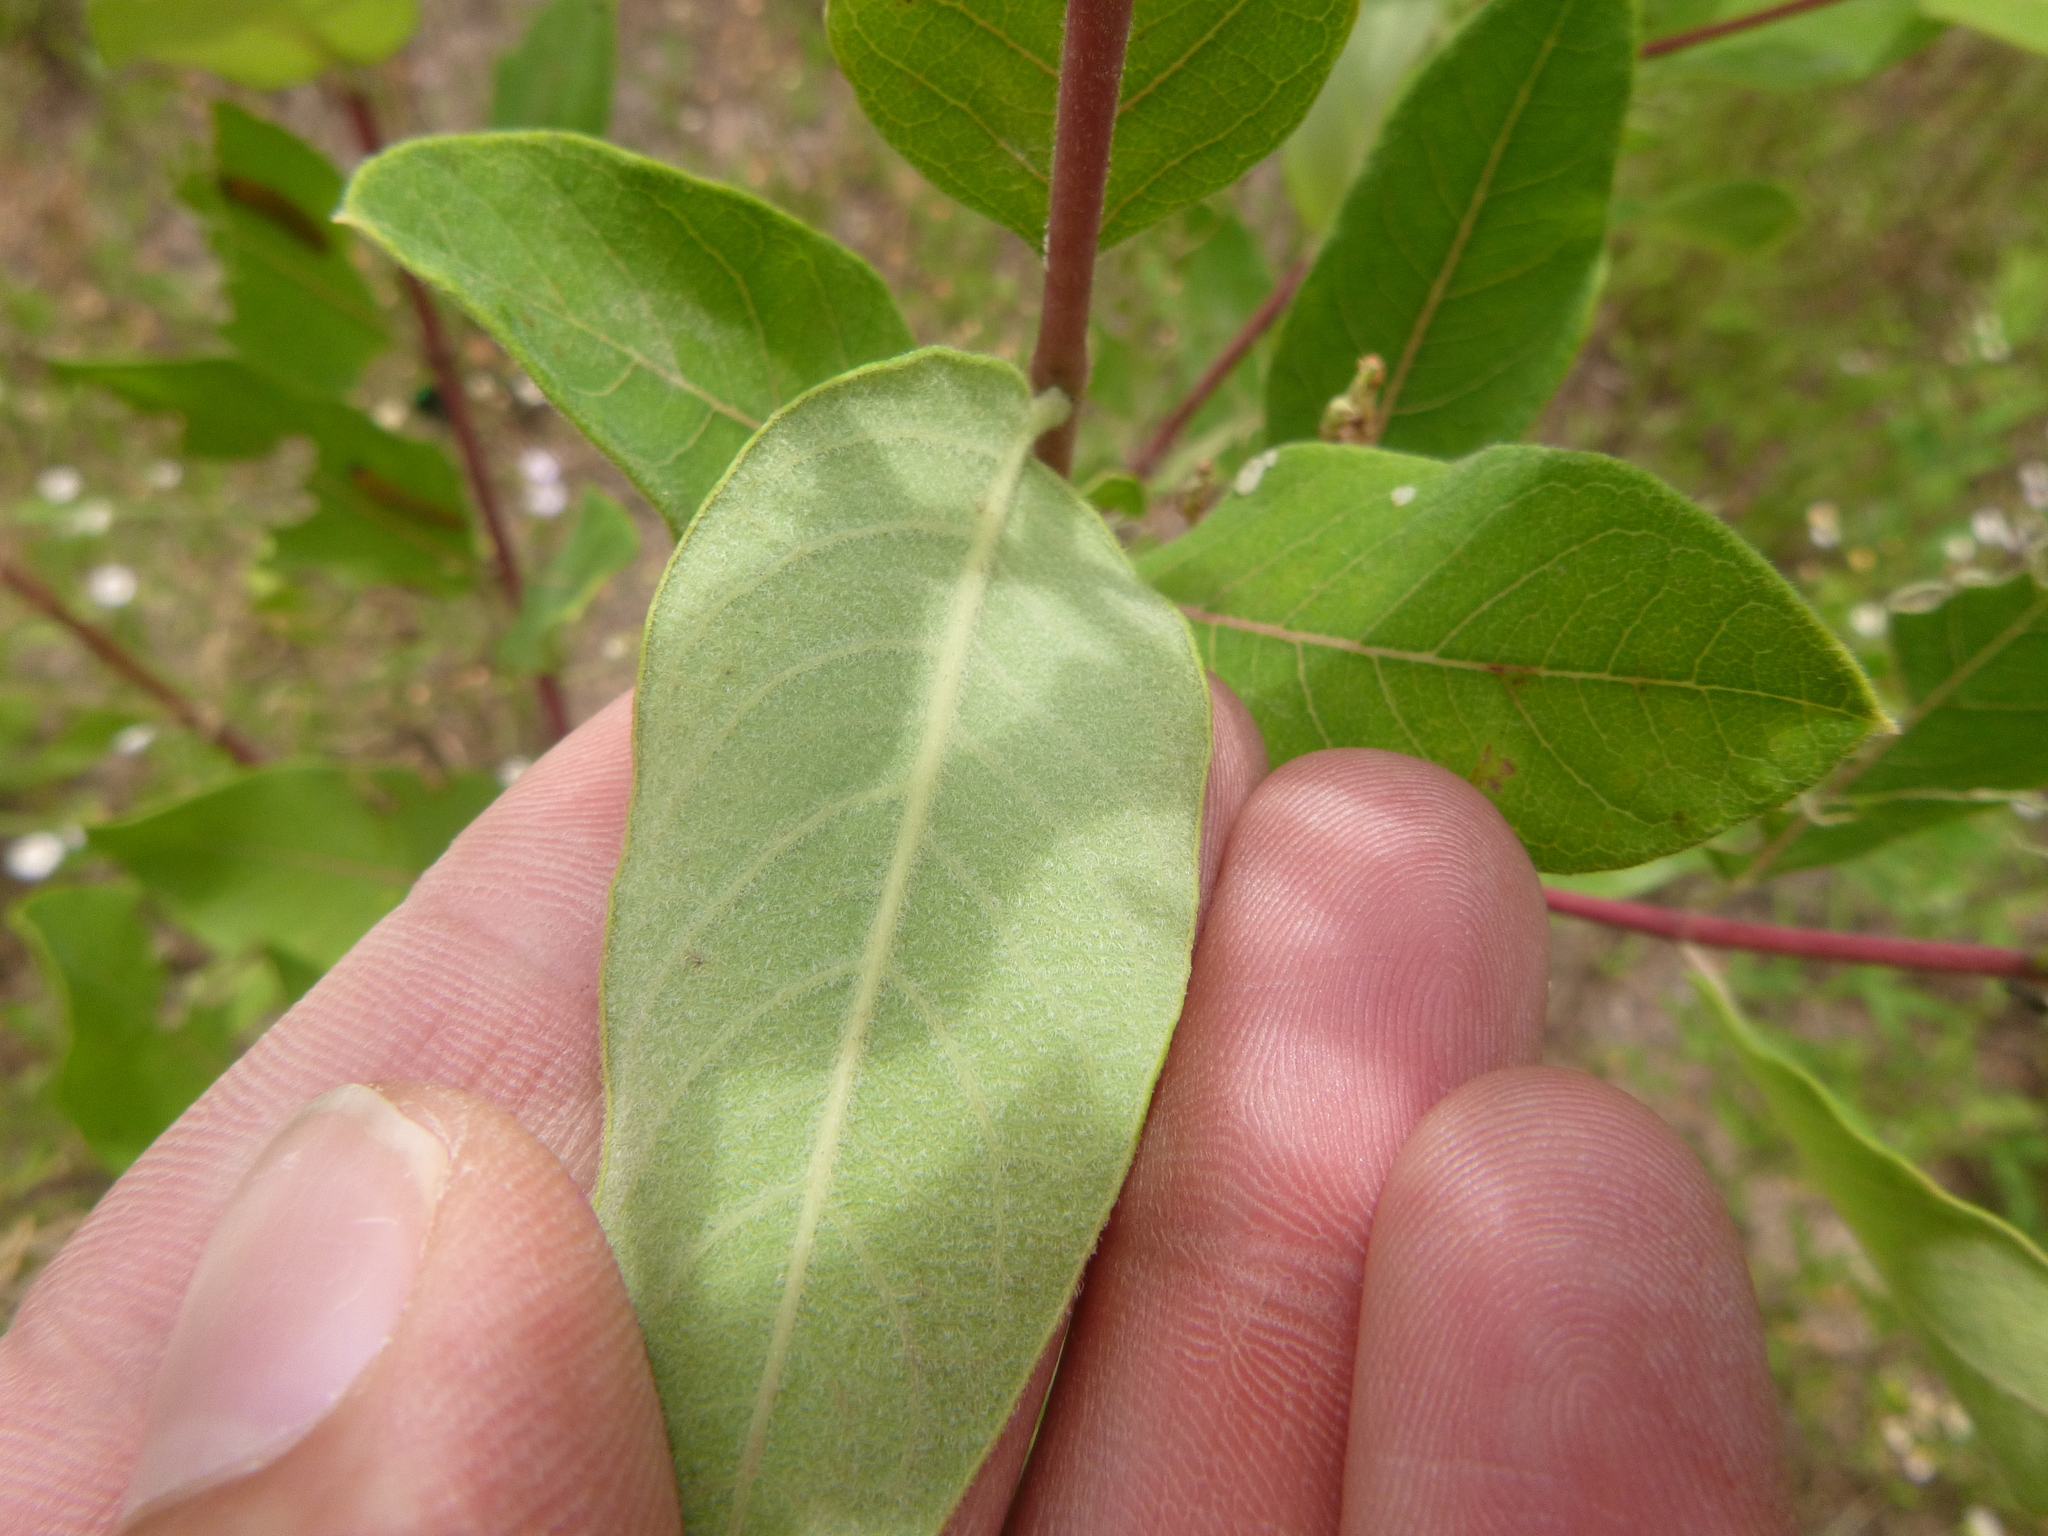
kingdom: Plantae
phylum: Tracheophyta
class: Magnoliopsida
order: Gentianales
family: Apocynaceae
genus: Apocynum
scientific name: Apocynum cannabinum
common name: Hemp dogbane
